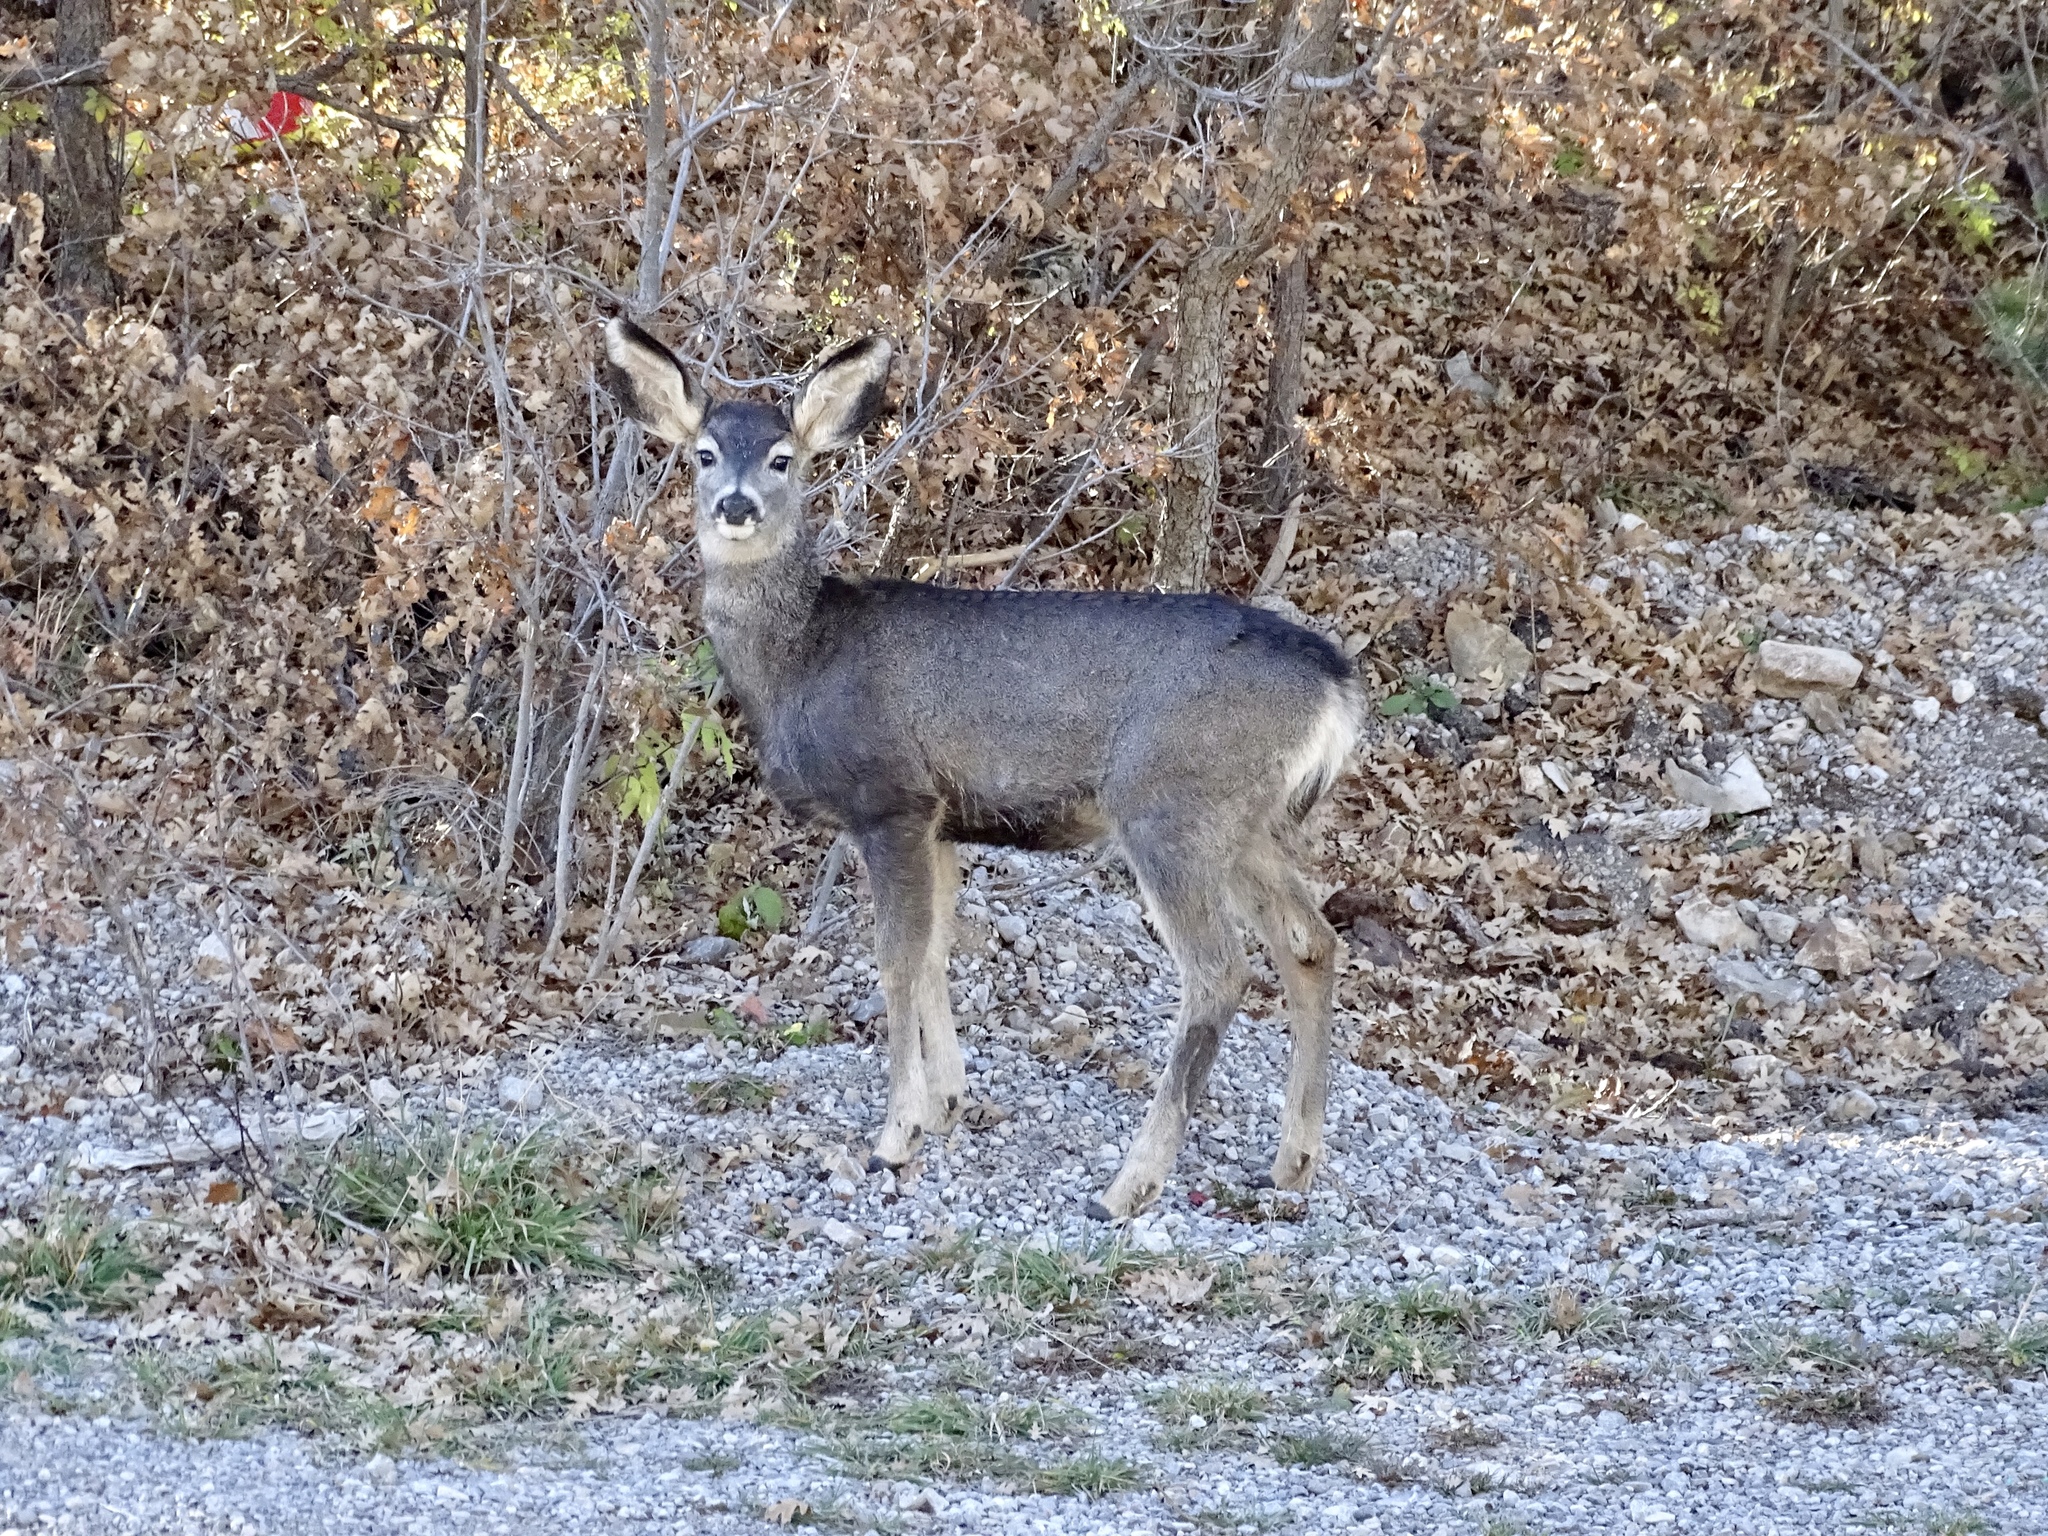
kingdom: Animalia
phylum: Chordata
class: Mammalia
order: Artiodactyla
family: Cervidae
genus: Odocoileus
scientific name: Odocoileus hemionus
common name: Mule deer
